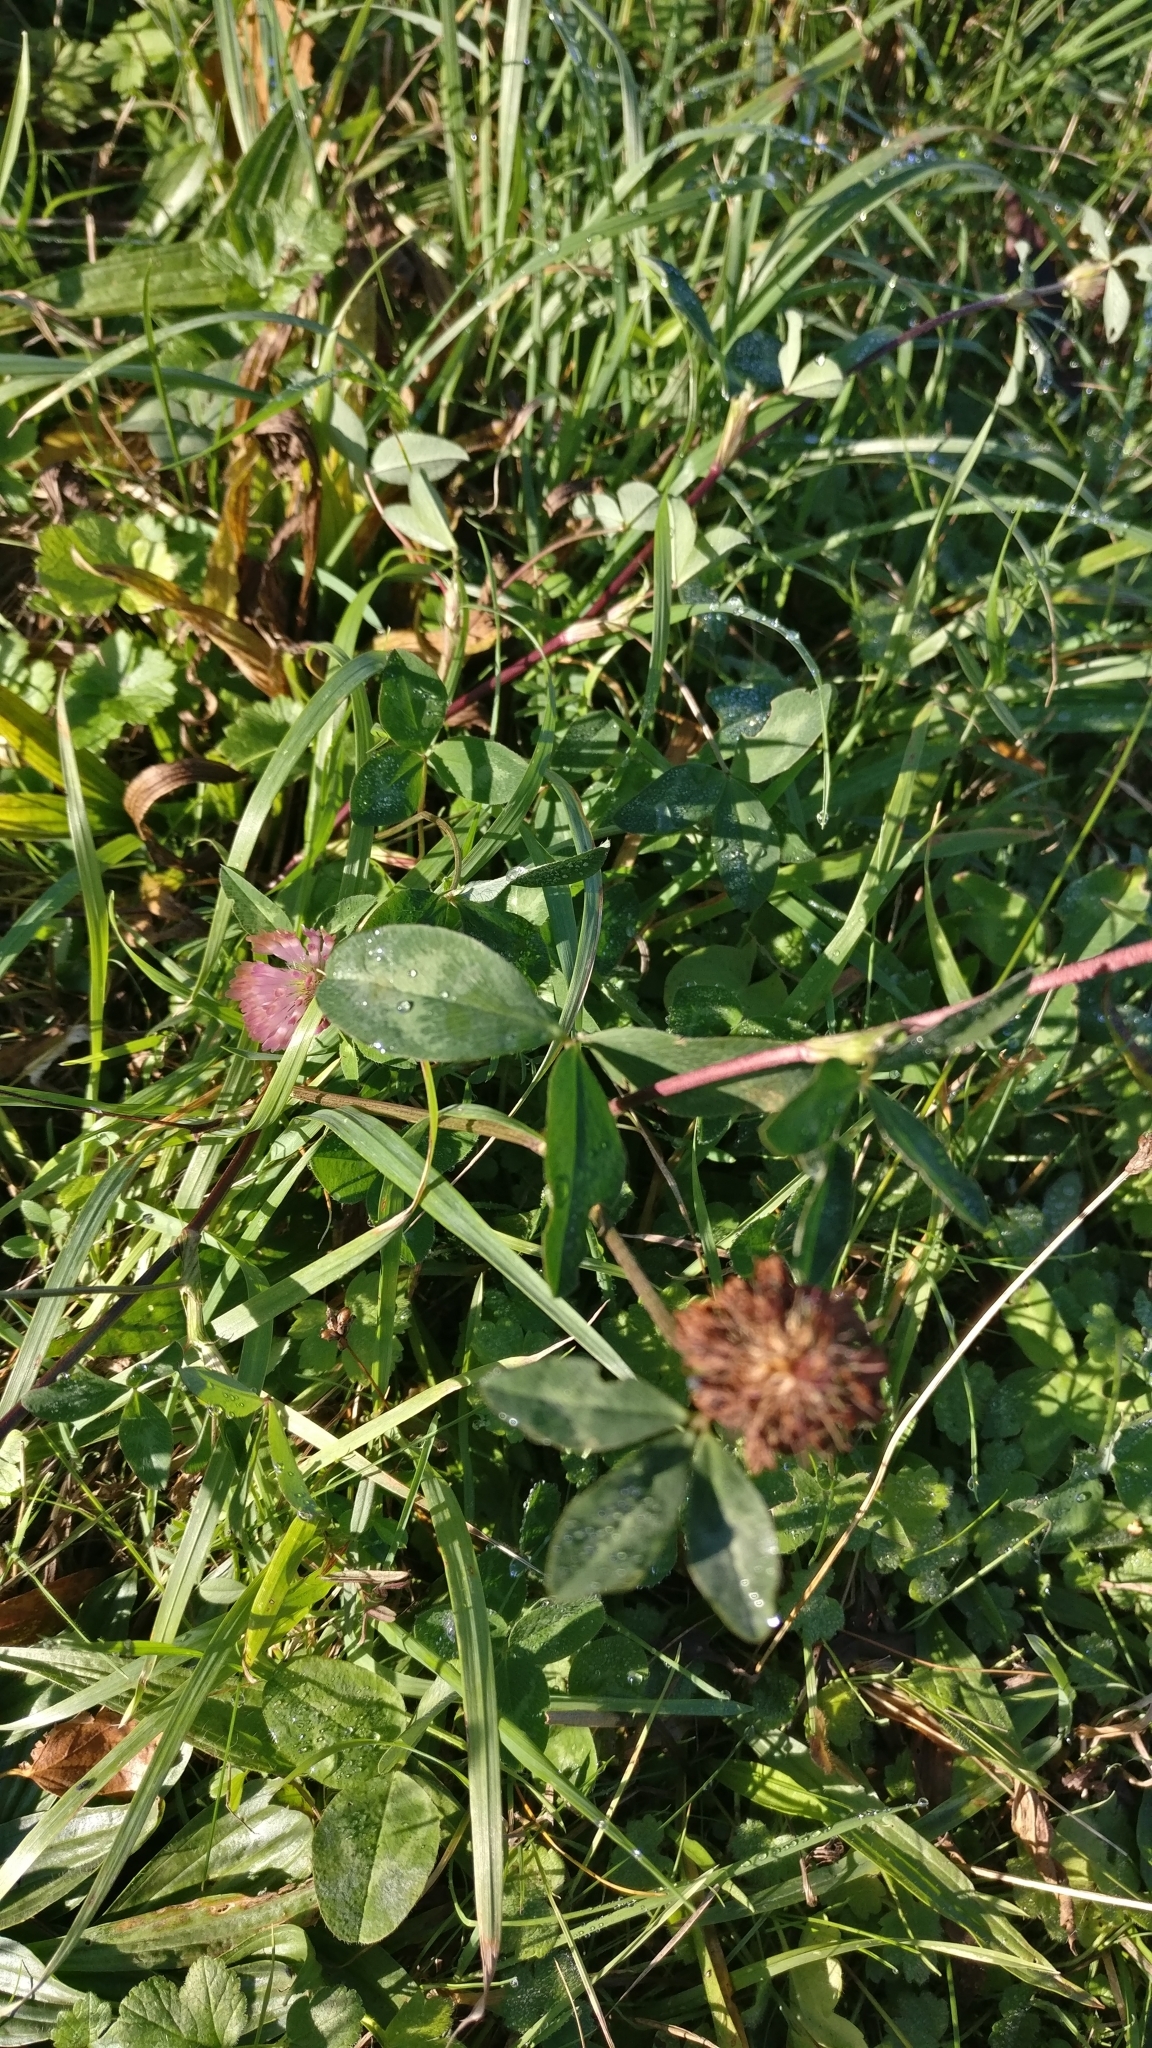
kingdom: Plantae
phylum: Tracheophyta
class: Magnoliopsida
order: Fabales
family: Fabaceae
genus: Trifolium
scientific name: Trifolium pratense
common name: Red clover
